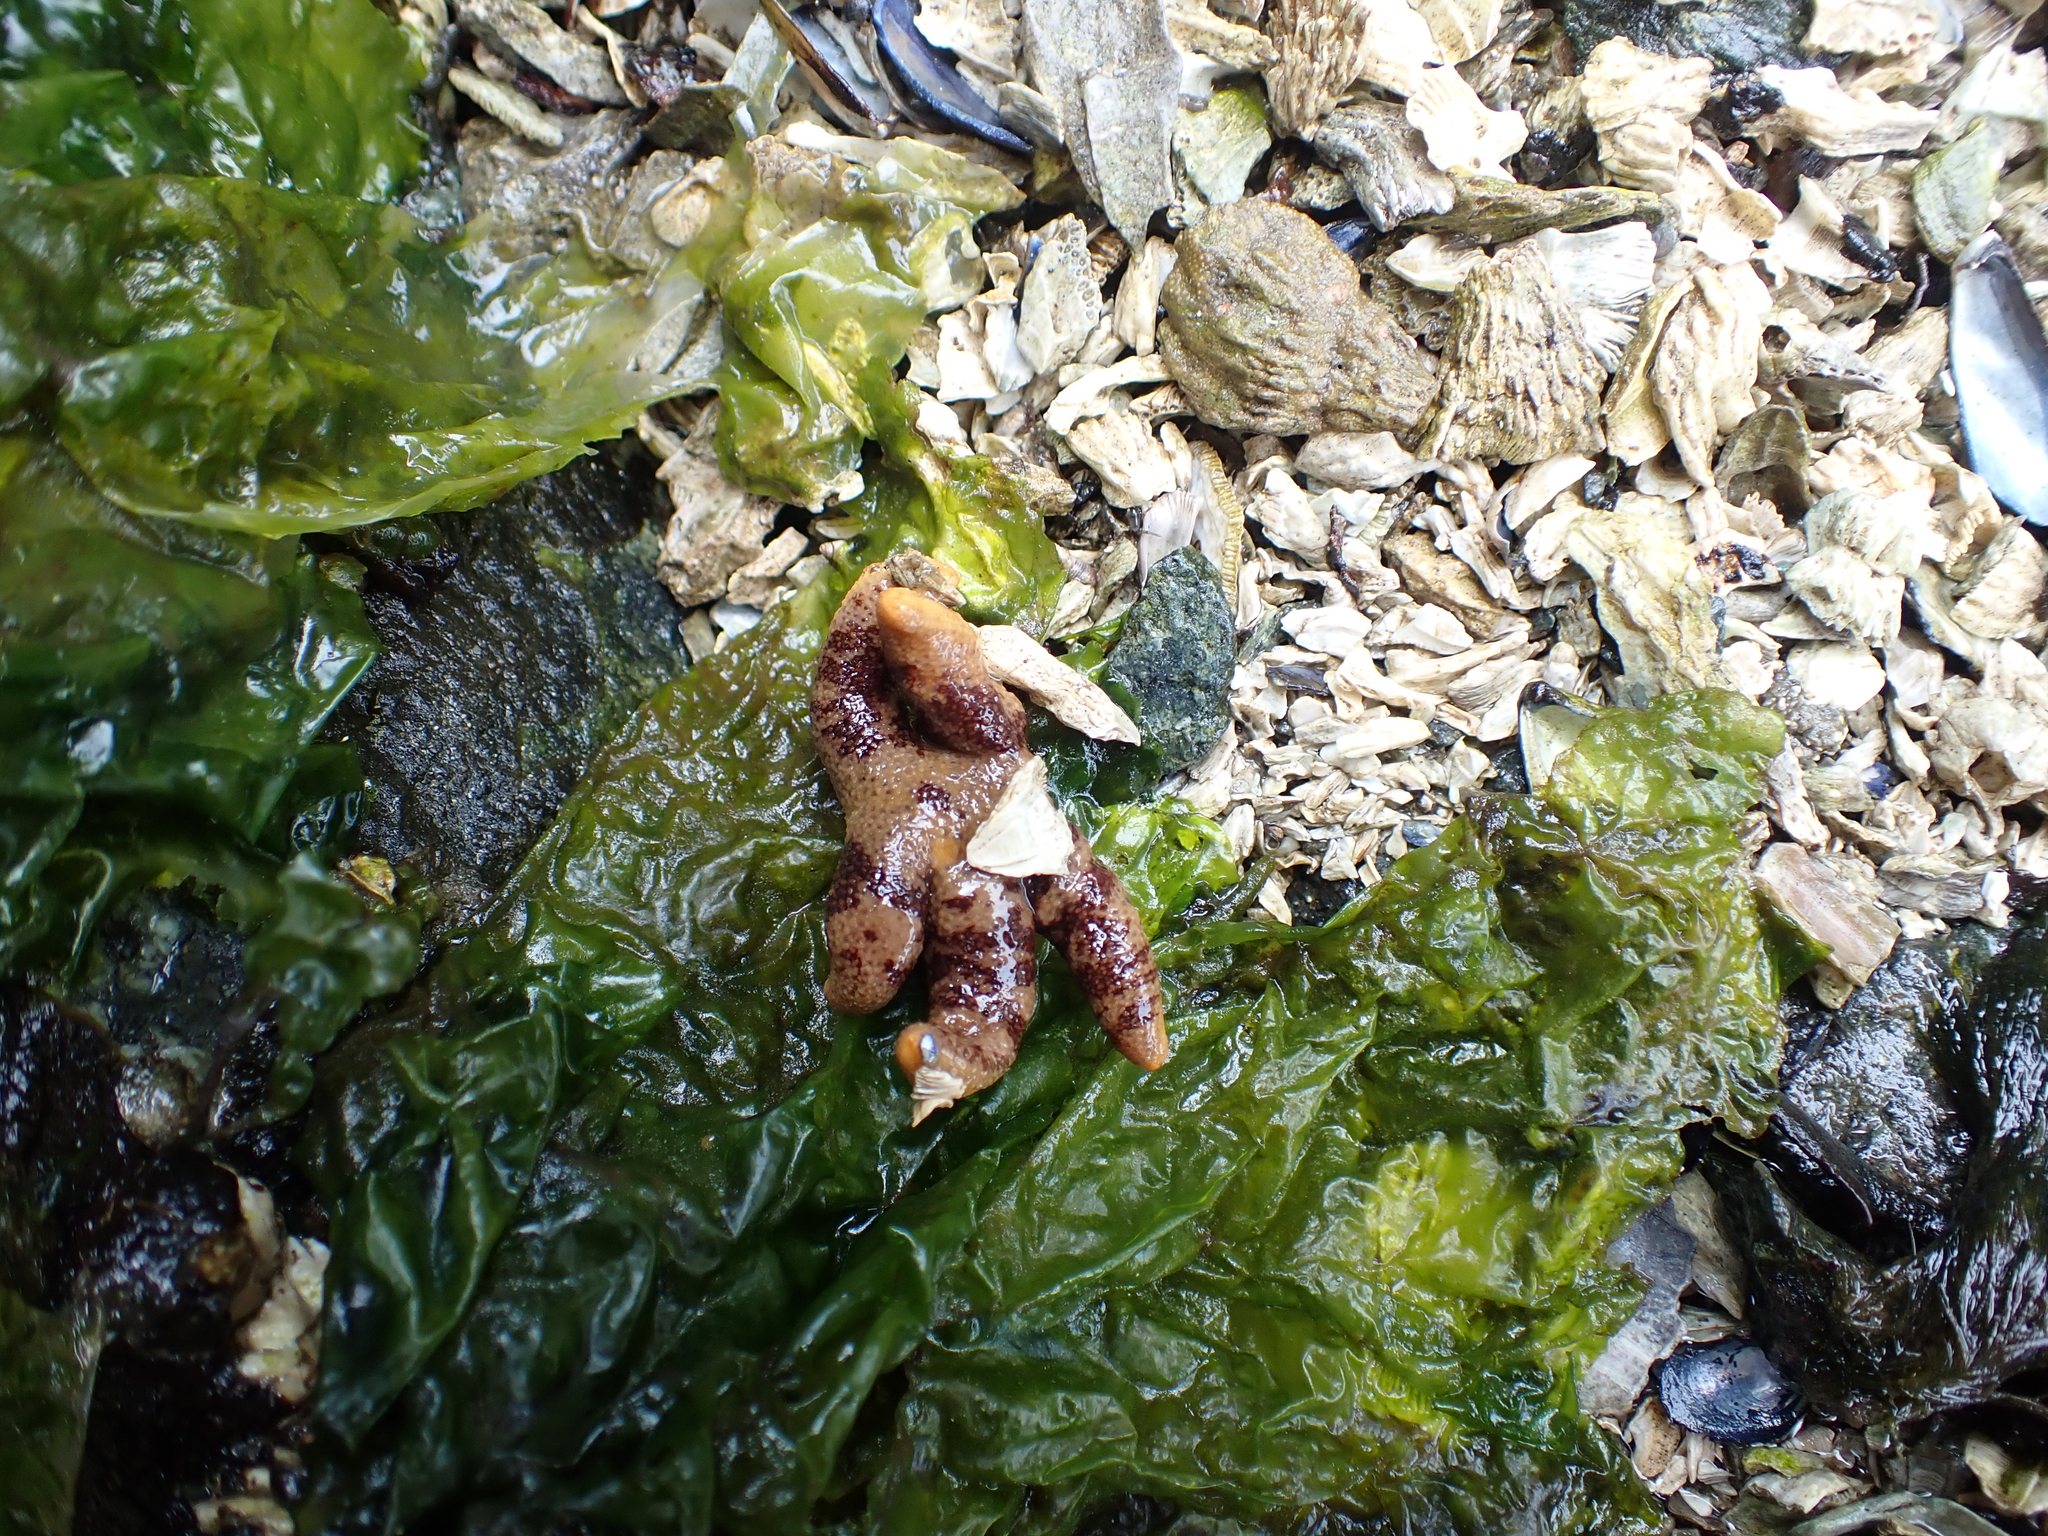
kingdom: Animalia
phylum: Echinodermata
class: Asteroidea
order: Spinulosida
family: Echinasteridae
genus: Henricia
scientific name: Henricia pumila
